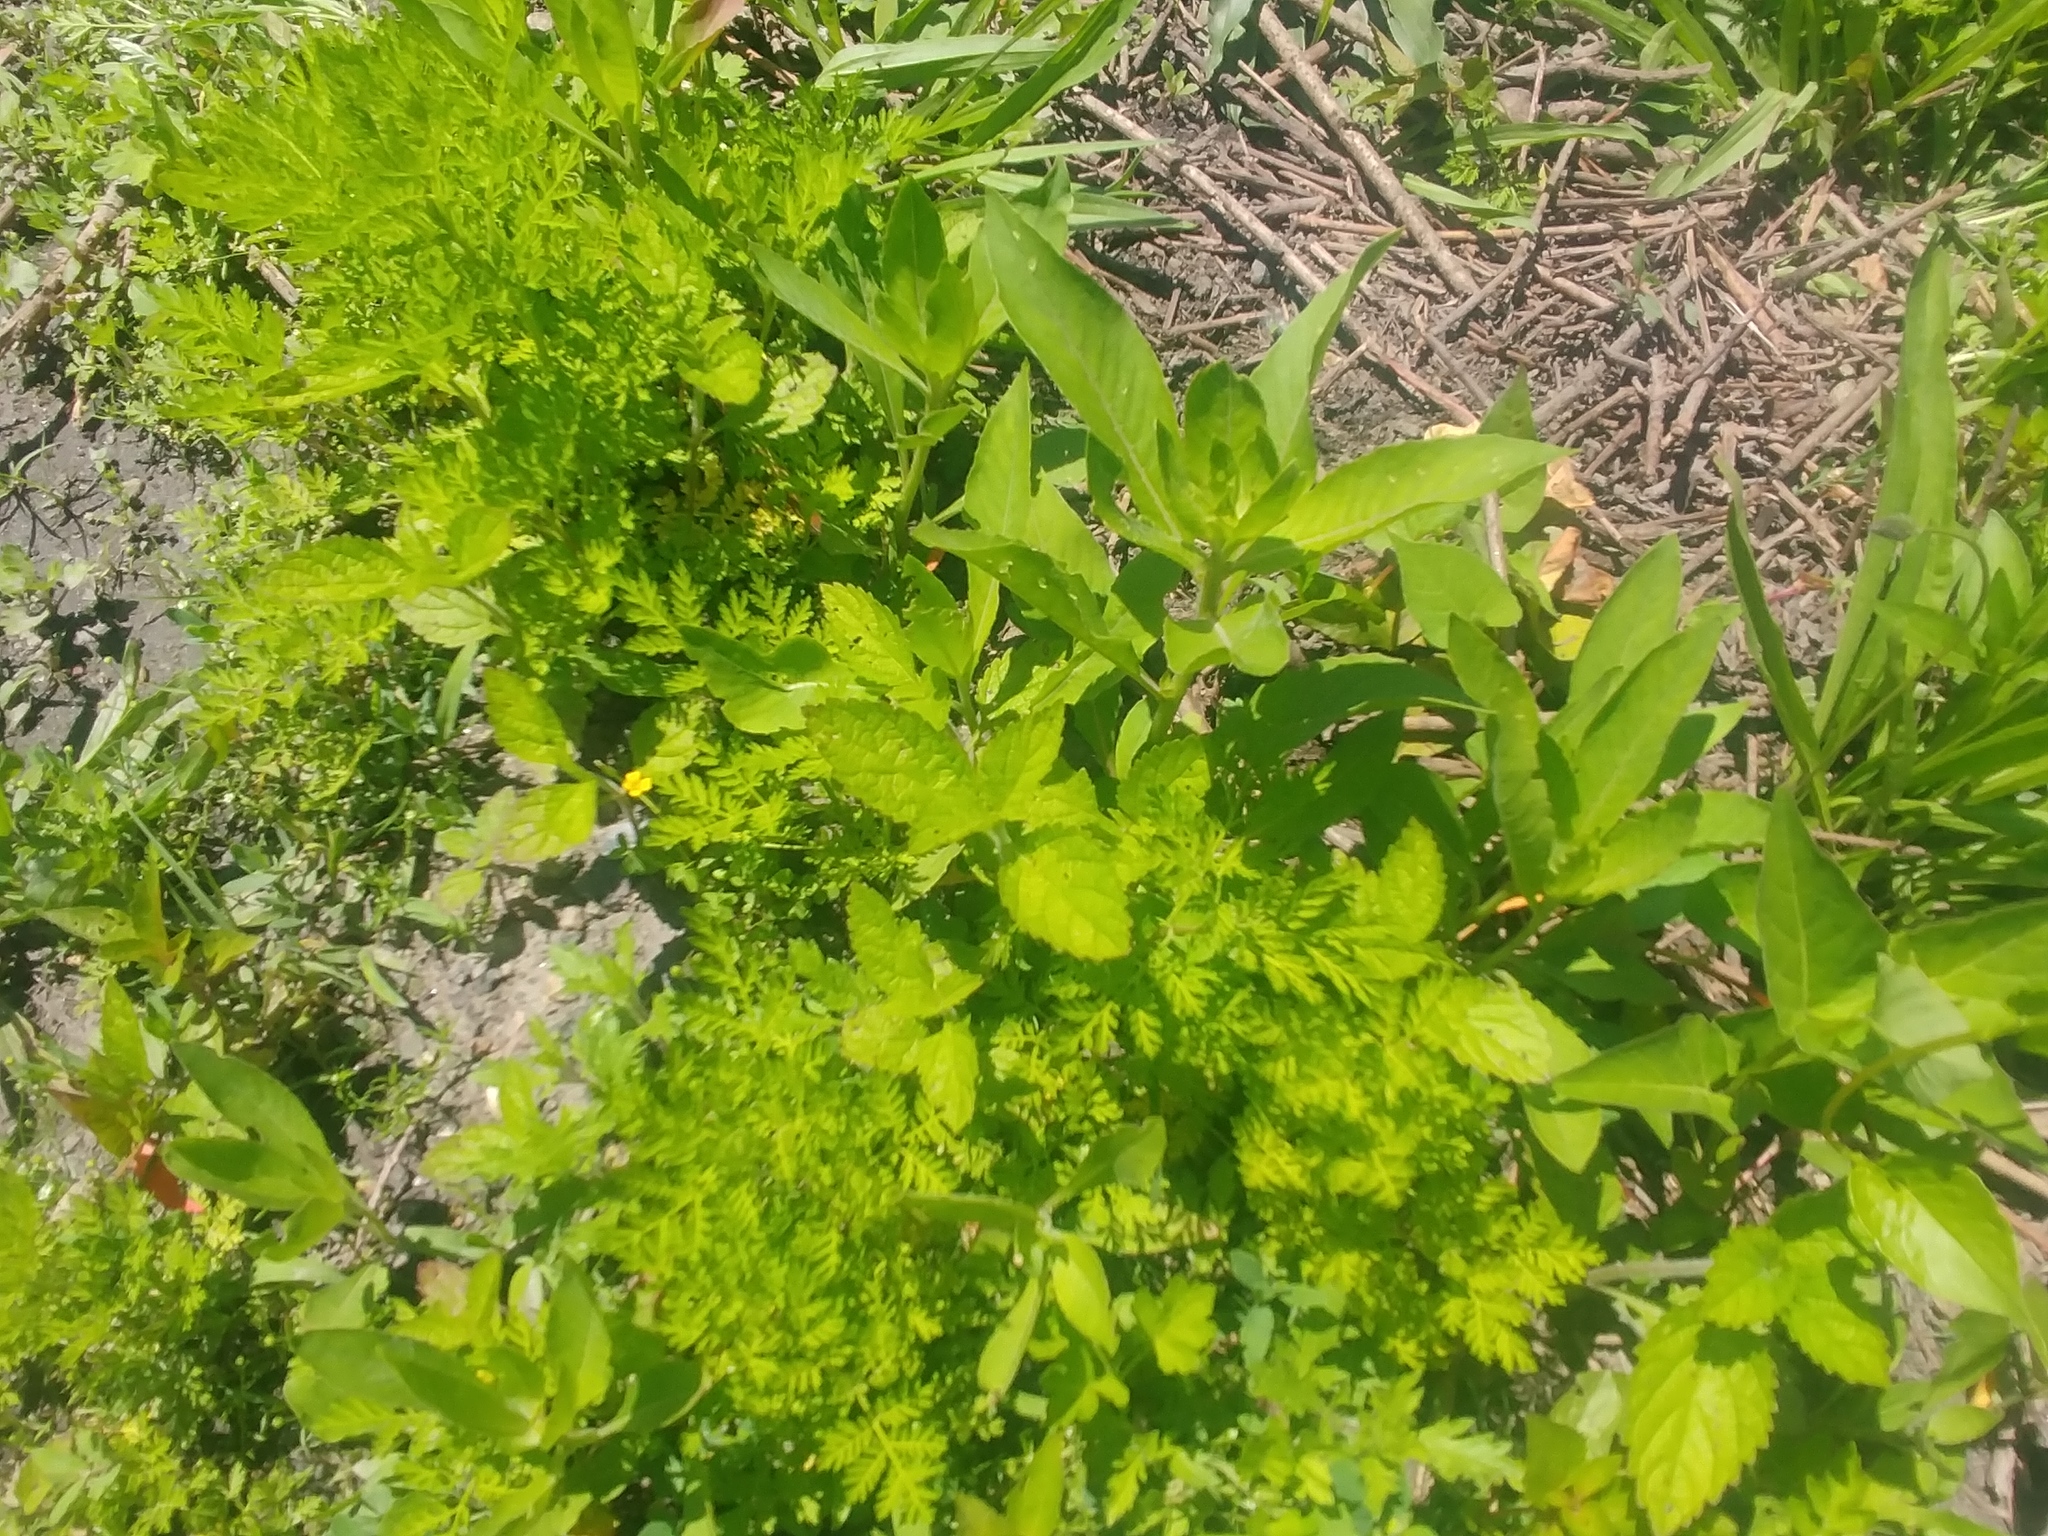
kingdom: Plantae
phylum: Tracheophyta
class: Magnoliopsida
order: Gentianales
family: Apocynaceae
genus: Asclepias
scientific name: Asclepias syriaca
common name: Common milkweed
